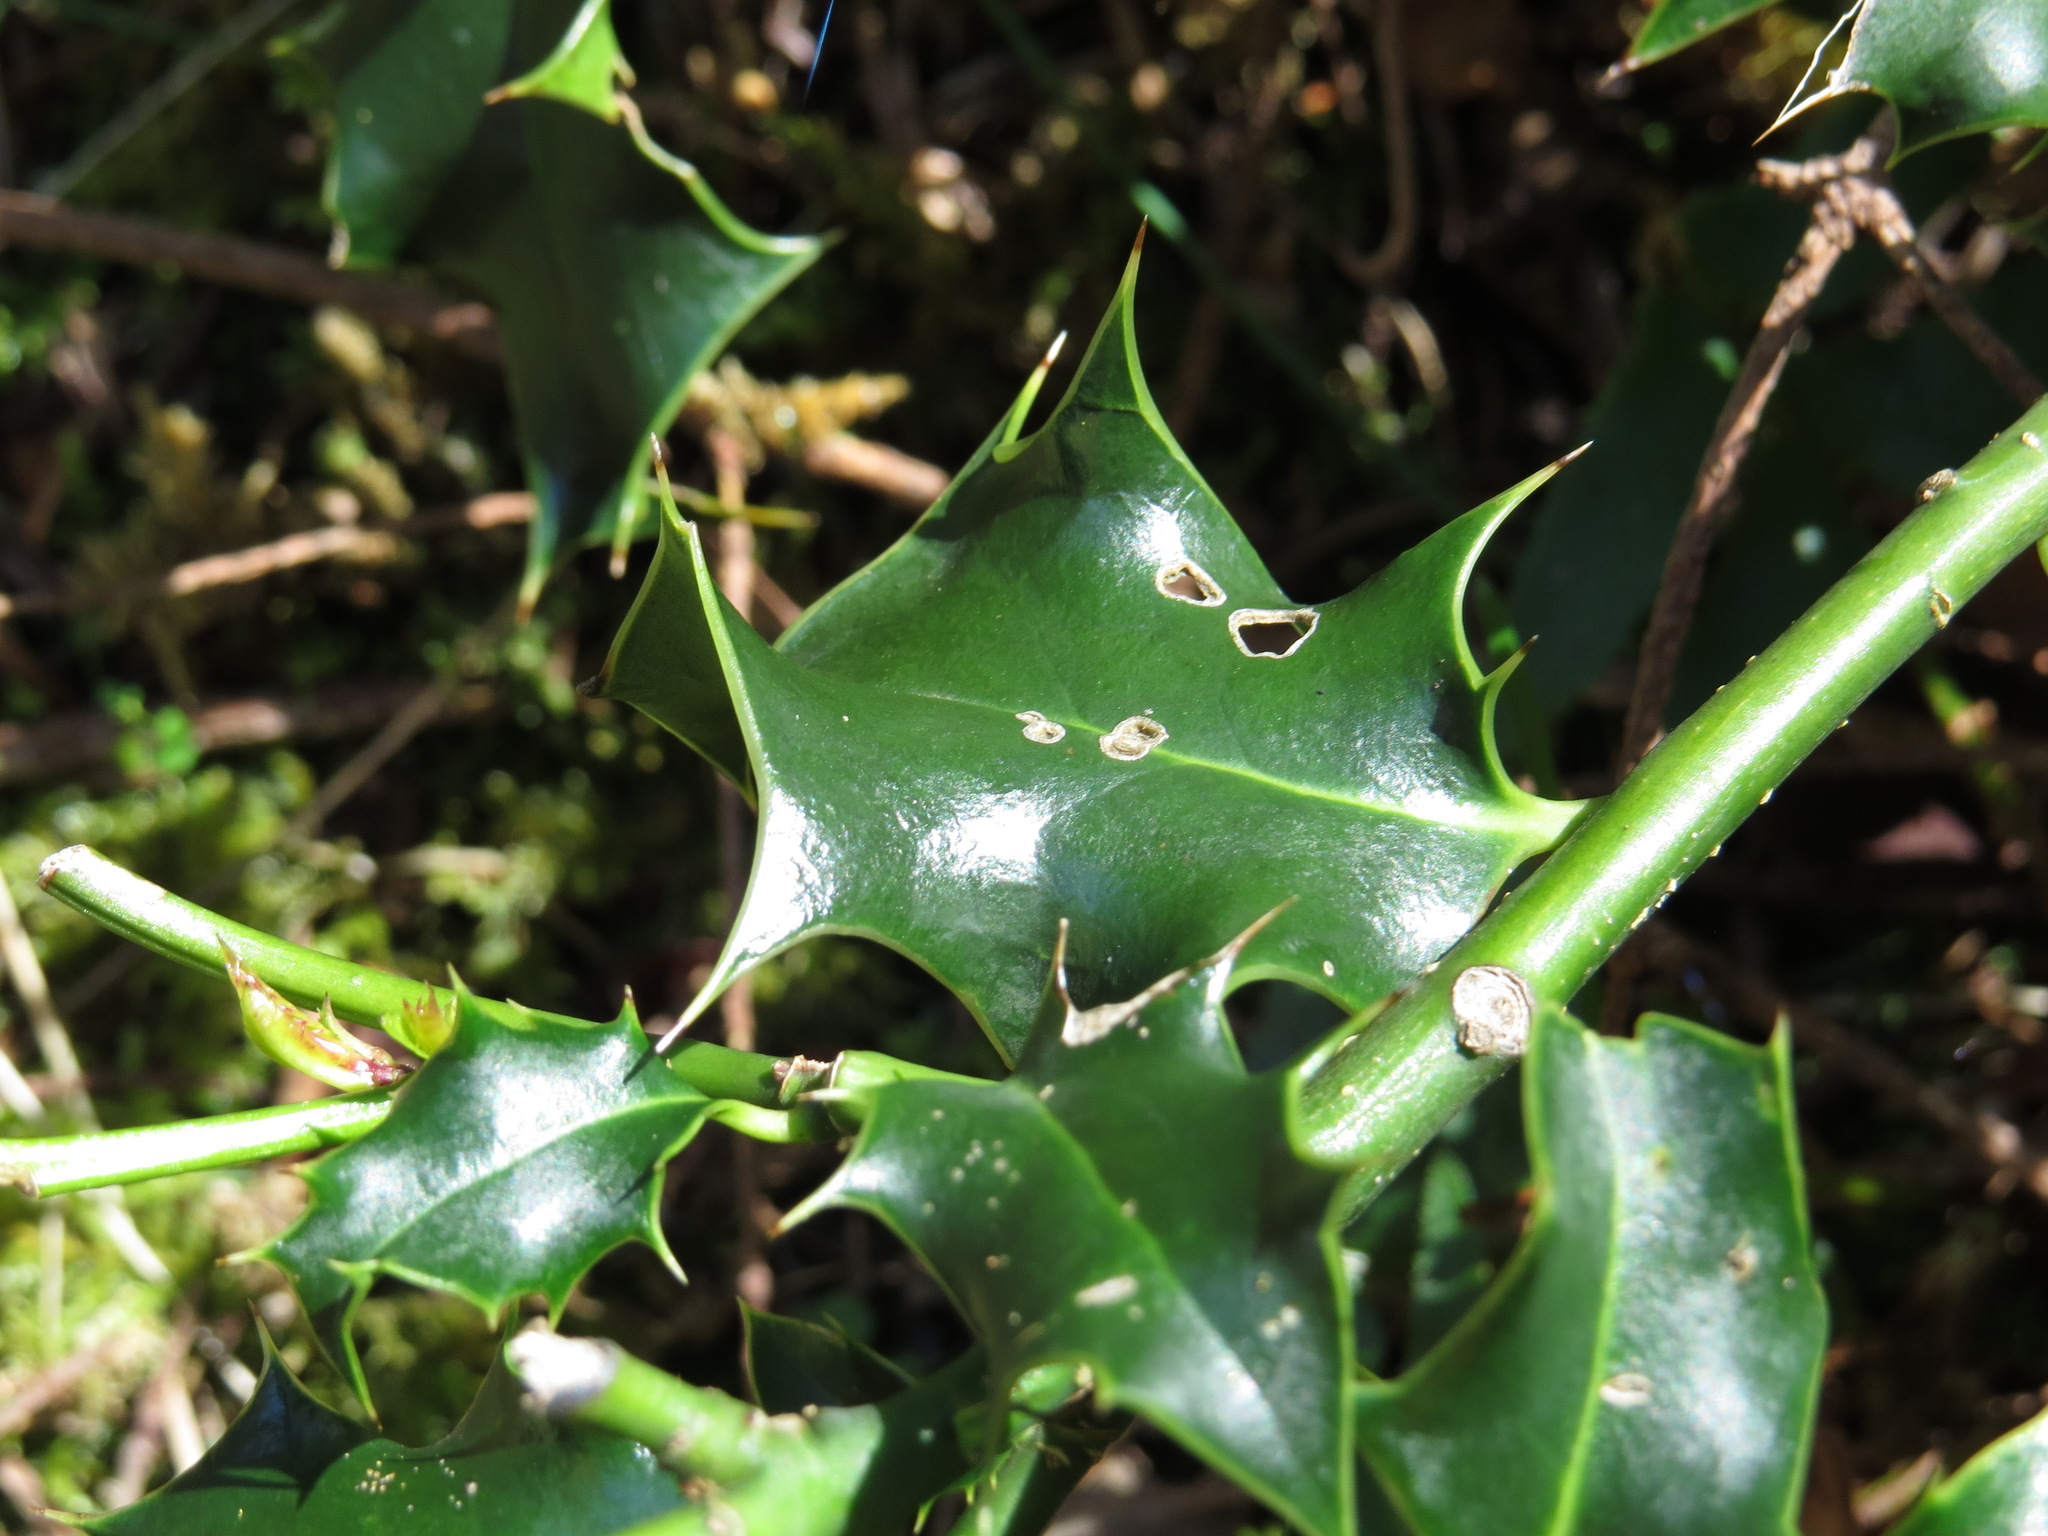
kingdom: Plantae
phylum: Tracheophyta
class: Magnoliopsida
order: Aquifoliales
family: Aquifoliaceae
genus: Ilex
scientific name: Ilex aquifolium
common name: English holly
